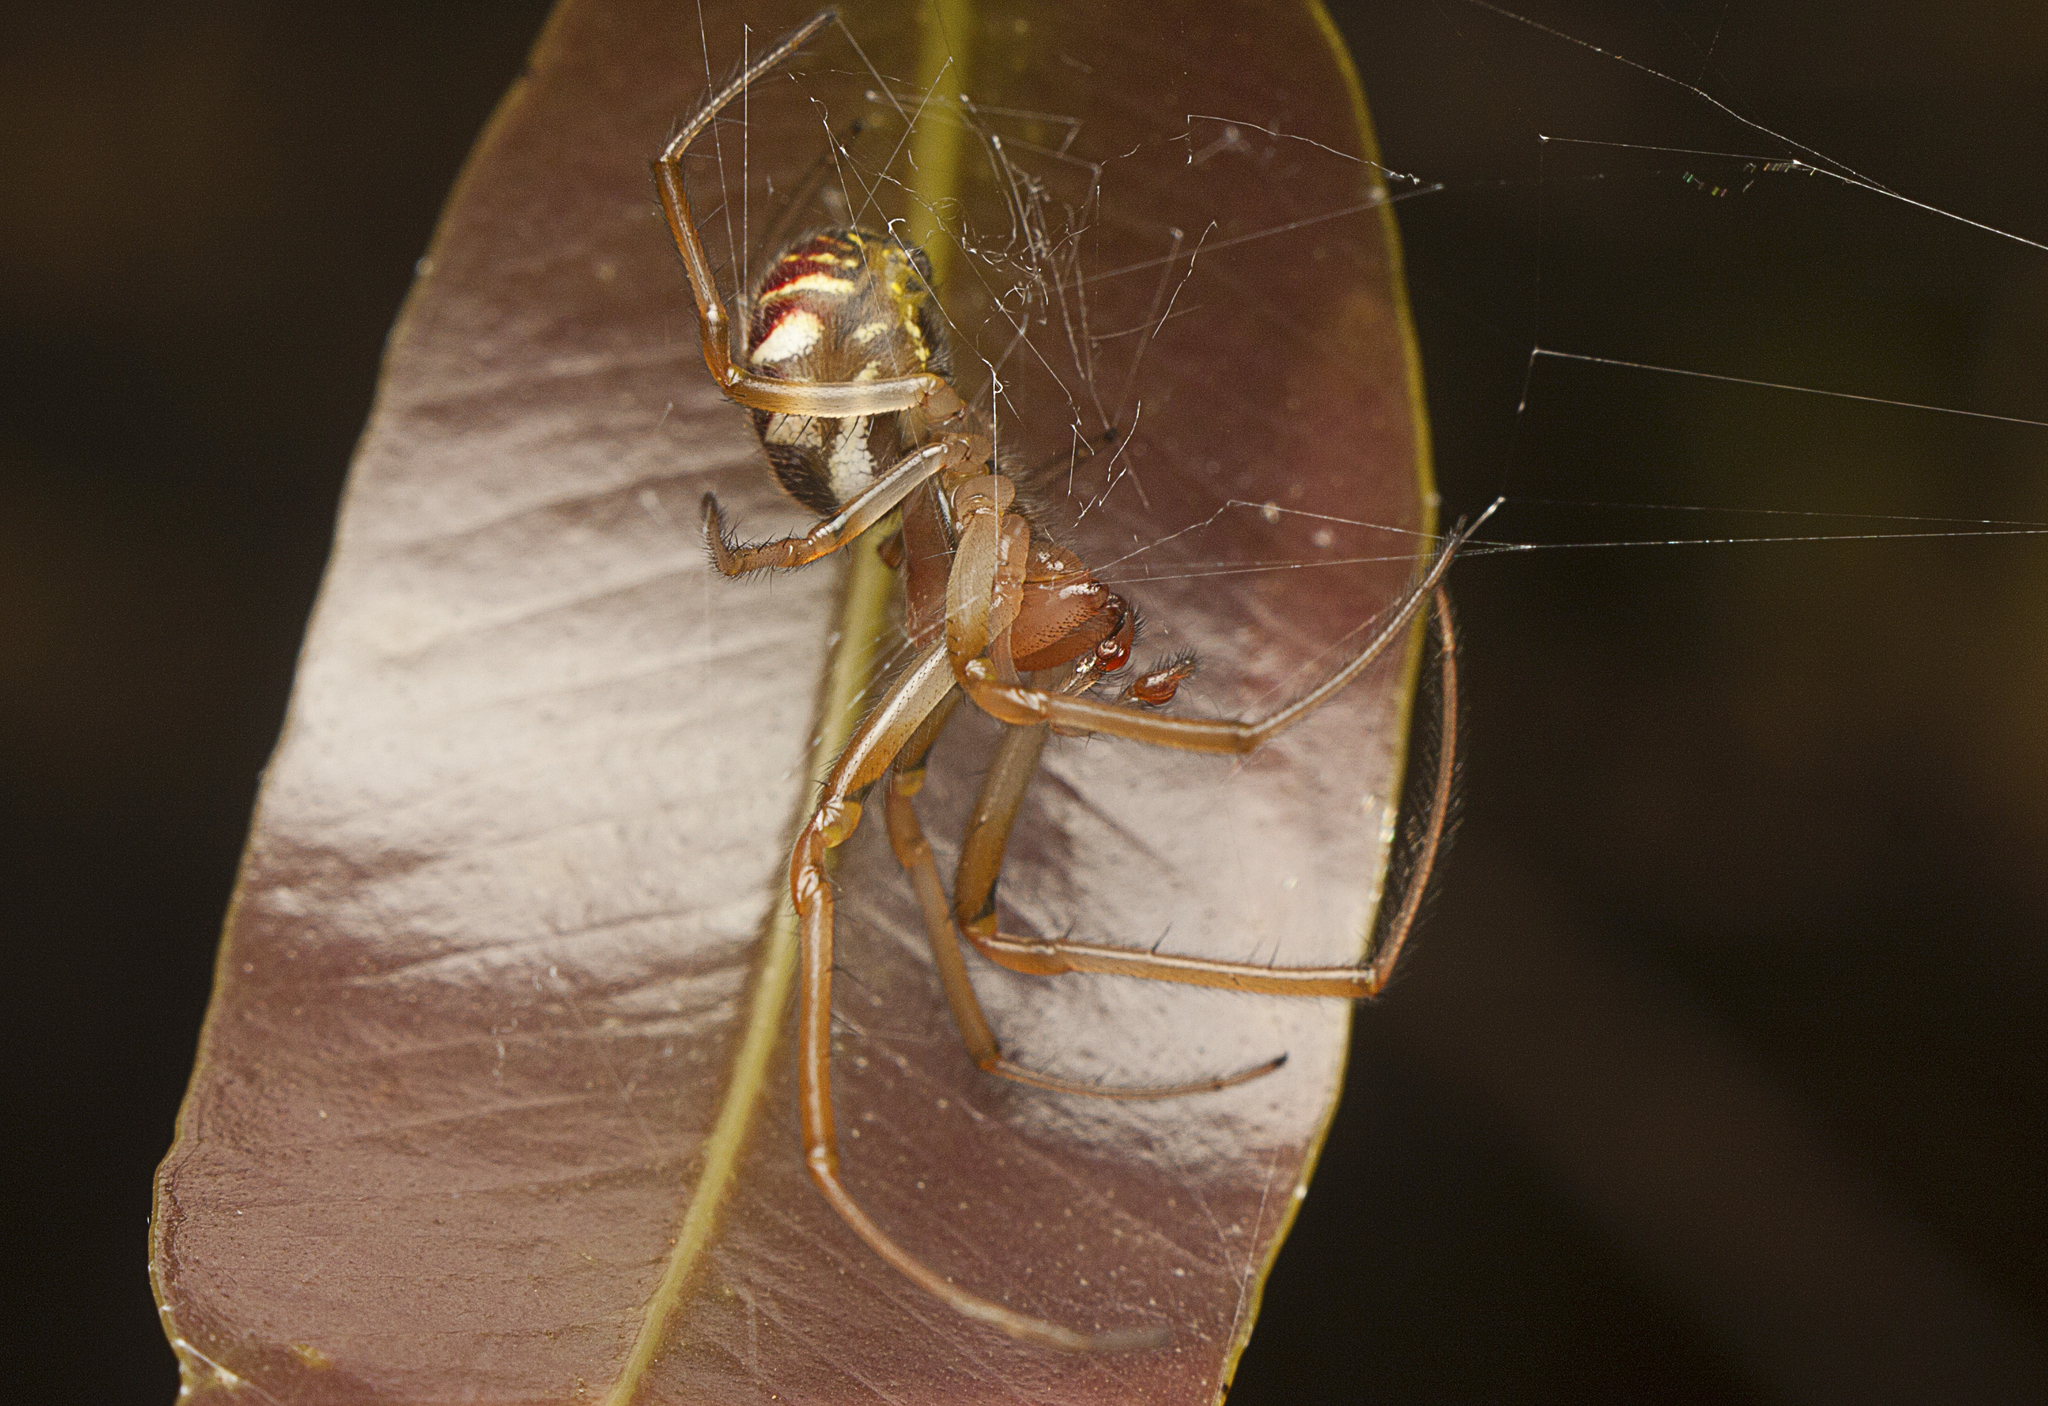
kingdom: Animalia
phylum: Arthropoda
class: Arachnida
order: Araneae
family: Araneidae
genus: Phonognatha
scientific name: Phonognatha graeffei
